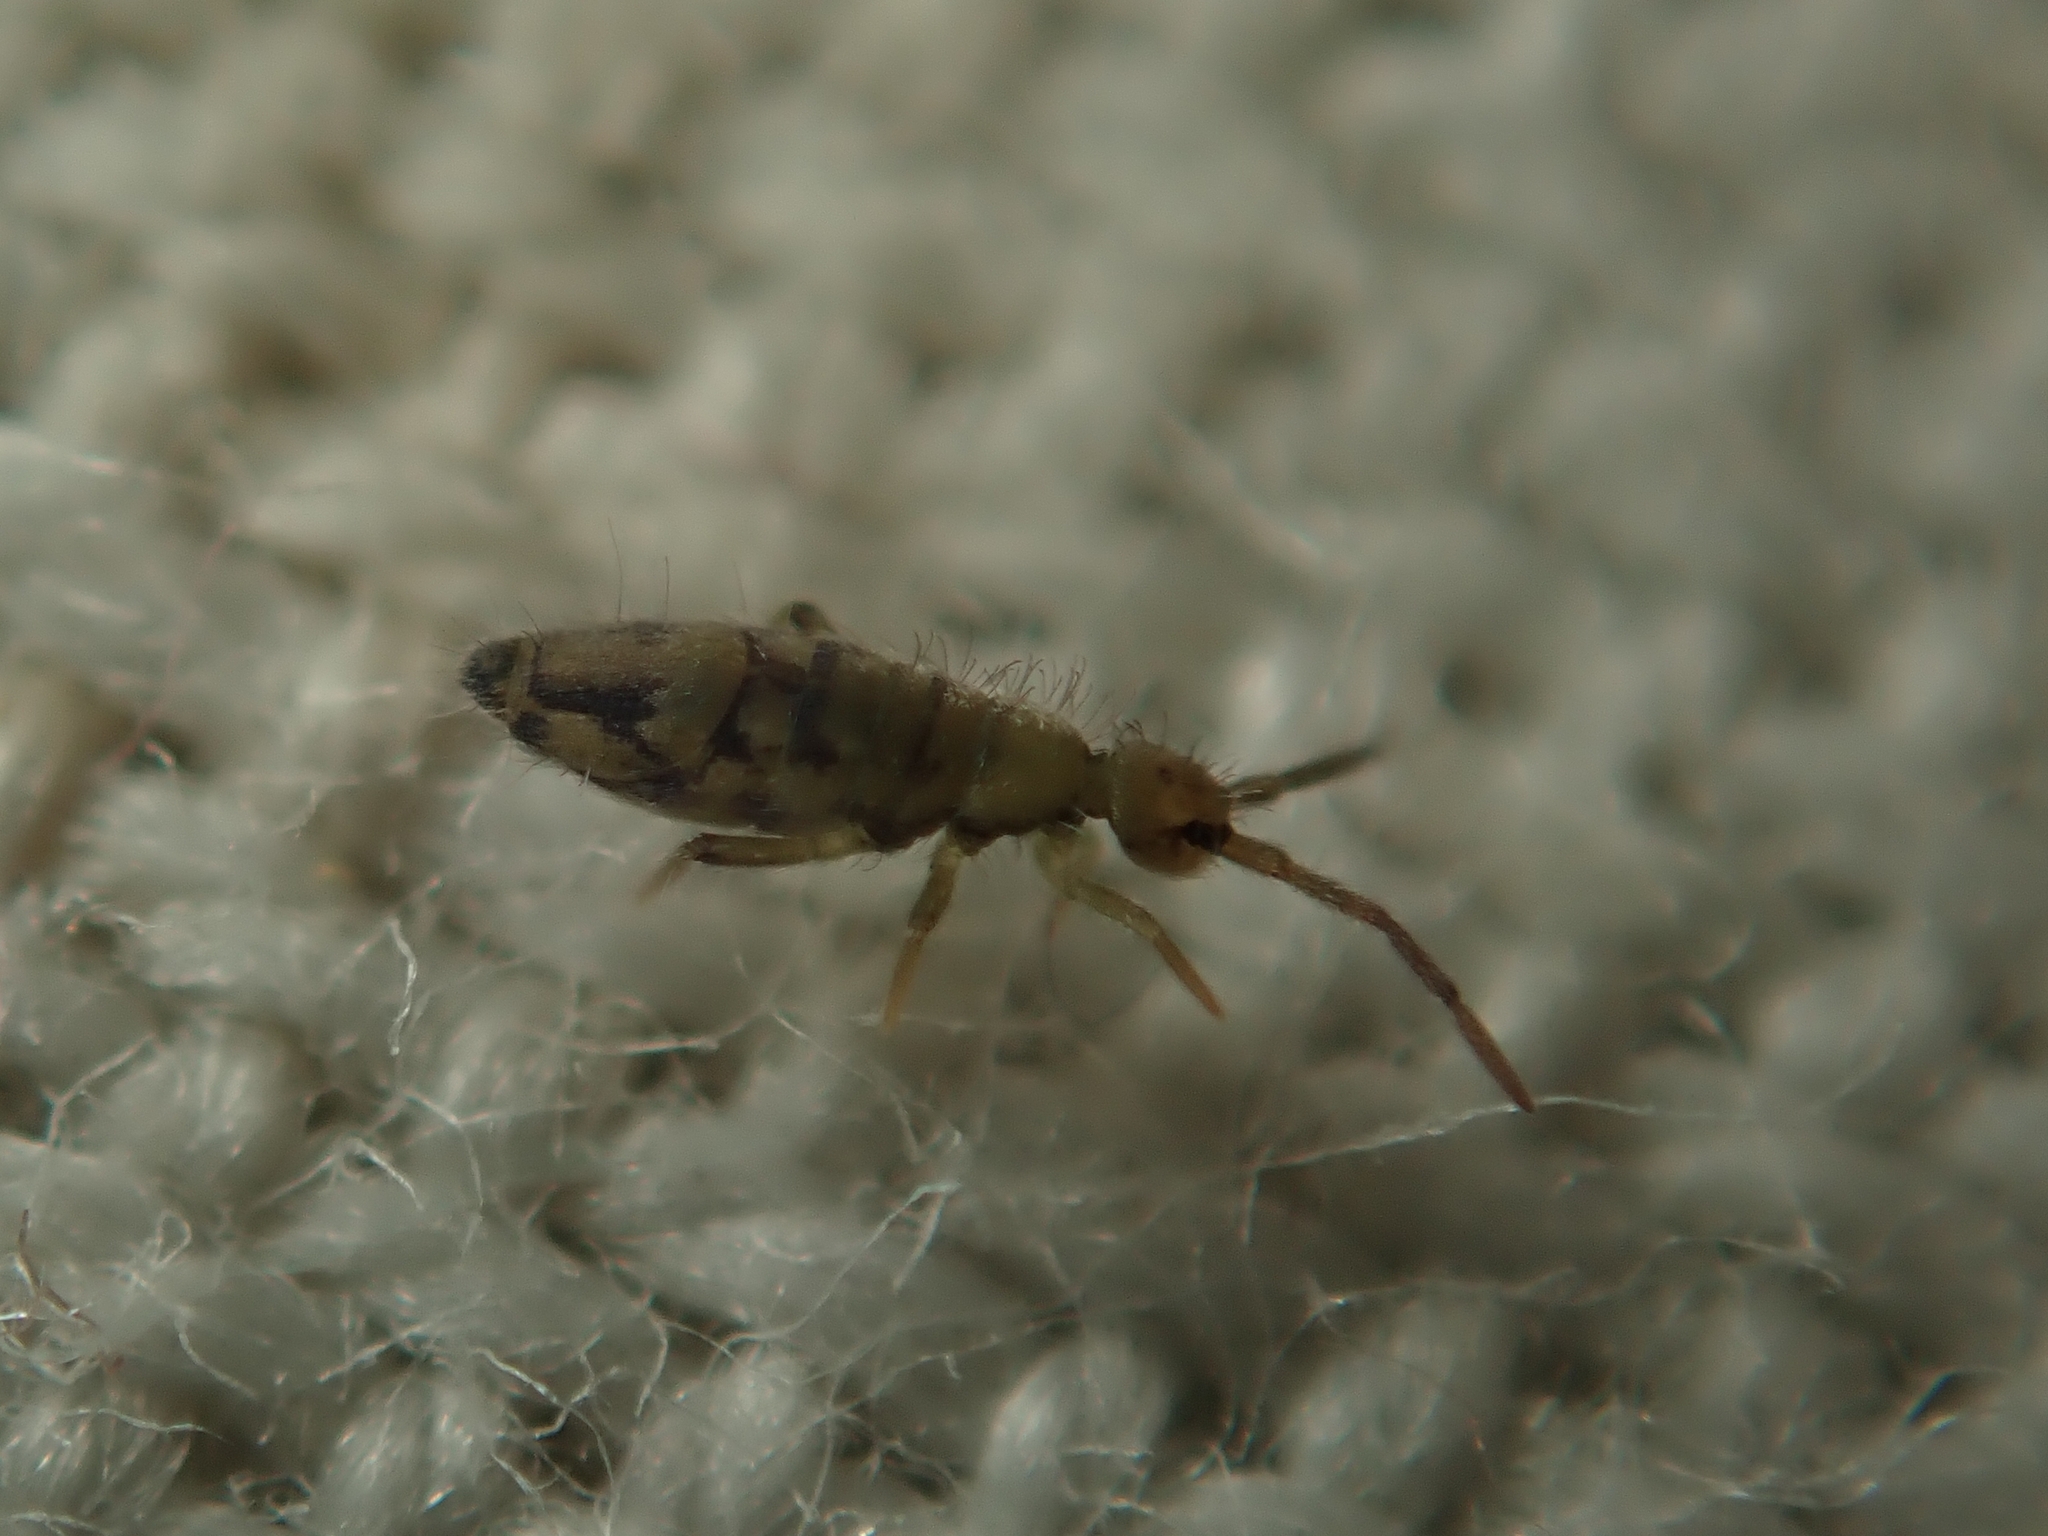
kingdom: Animalia
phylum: Arthropoda
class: Collembola
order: Entomobryomorpha
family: Entomobryidae
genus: Entomobrya
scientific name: Entomobrya nivalis
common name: Cosmopolitan springtail
